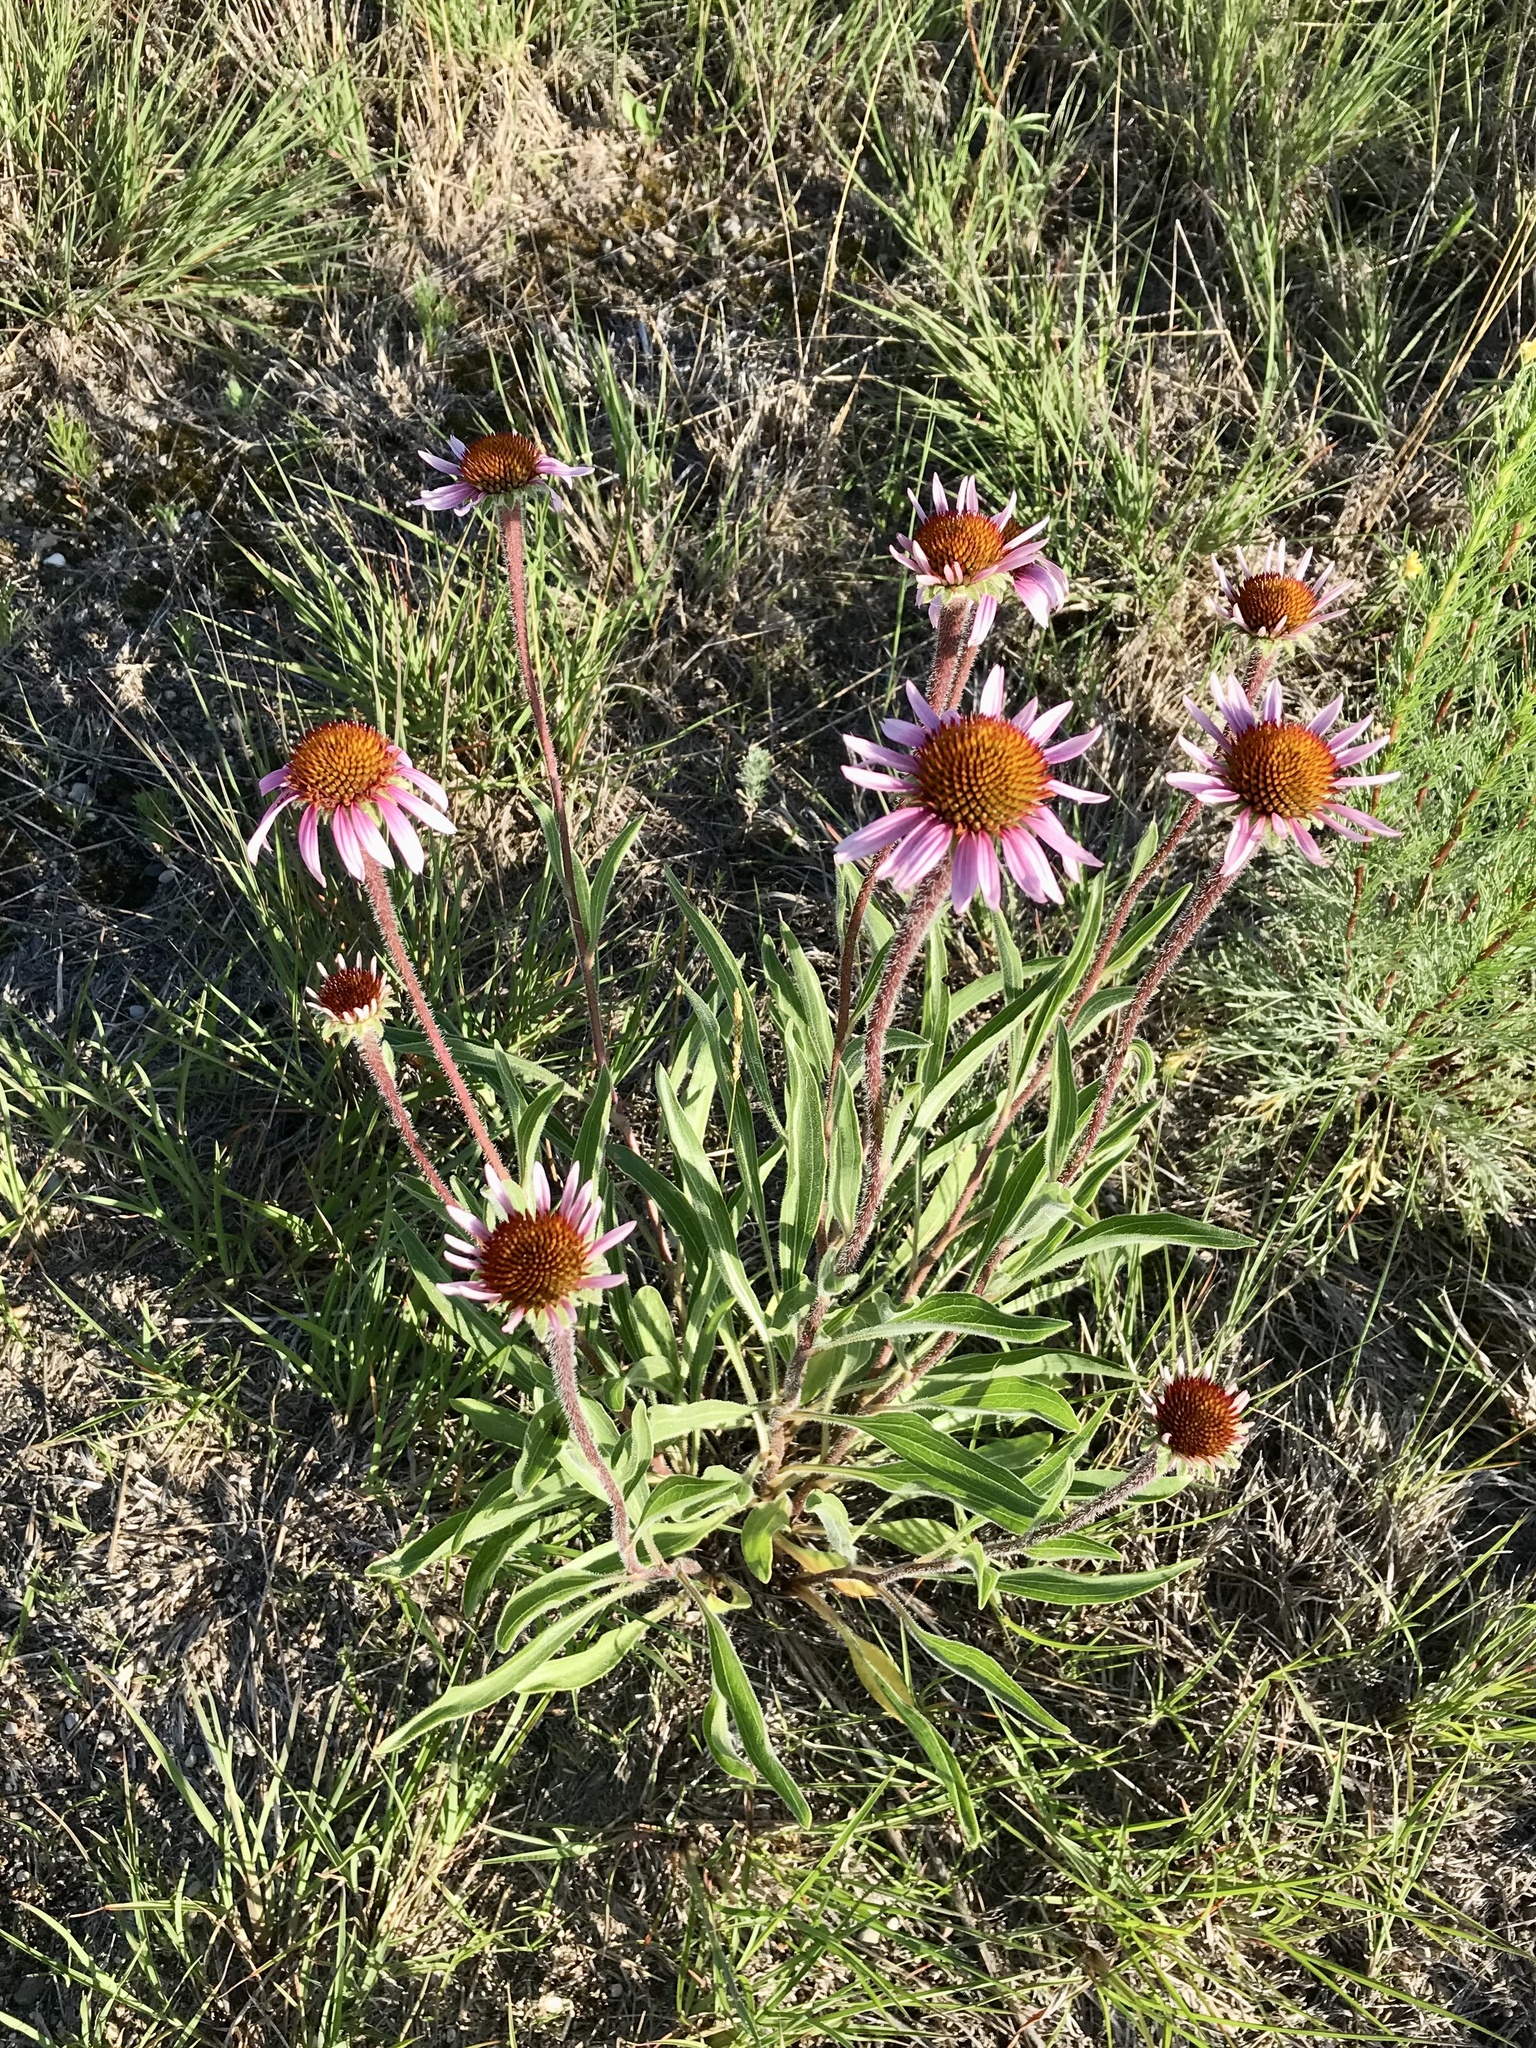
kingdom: Plantae
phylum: Tracheophyta
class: Magnoliopsida
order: Asterales
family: Asteraceae
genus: Echinacea
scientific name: Echinacea angustifolia
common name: Black-sampson echinacea
